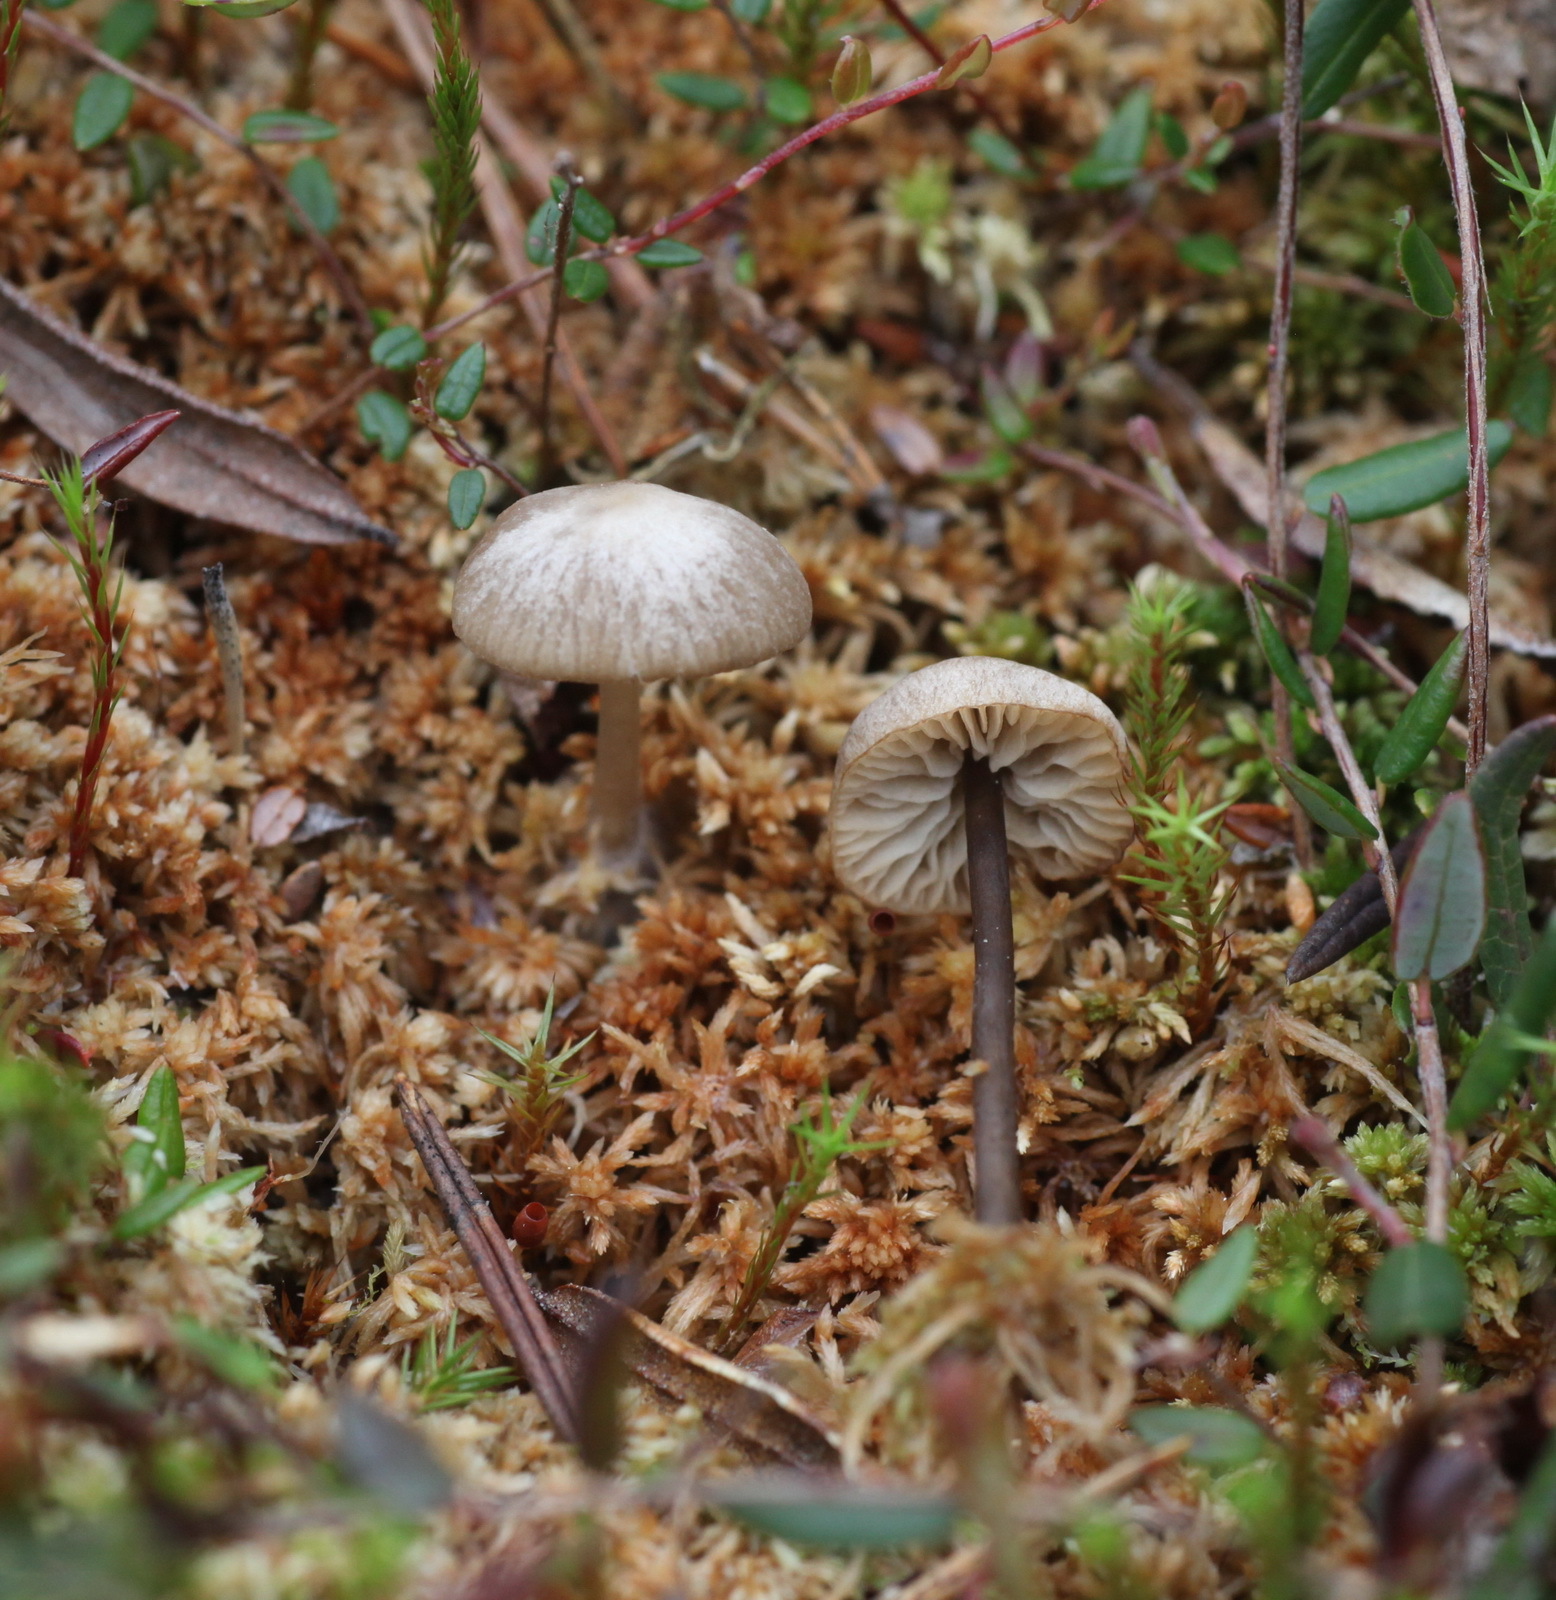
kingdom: Fungi
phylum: Basidiomycota
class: Agaricomycetes
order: Agaricales
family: Lyophyllaceae
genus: Sphagnurus
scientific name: Sphagnurus paluster
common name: Sphagnum greyling
